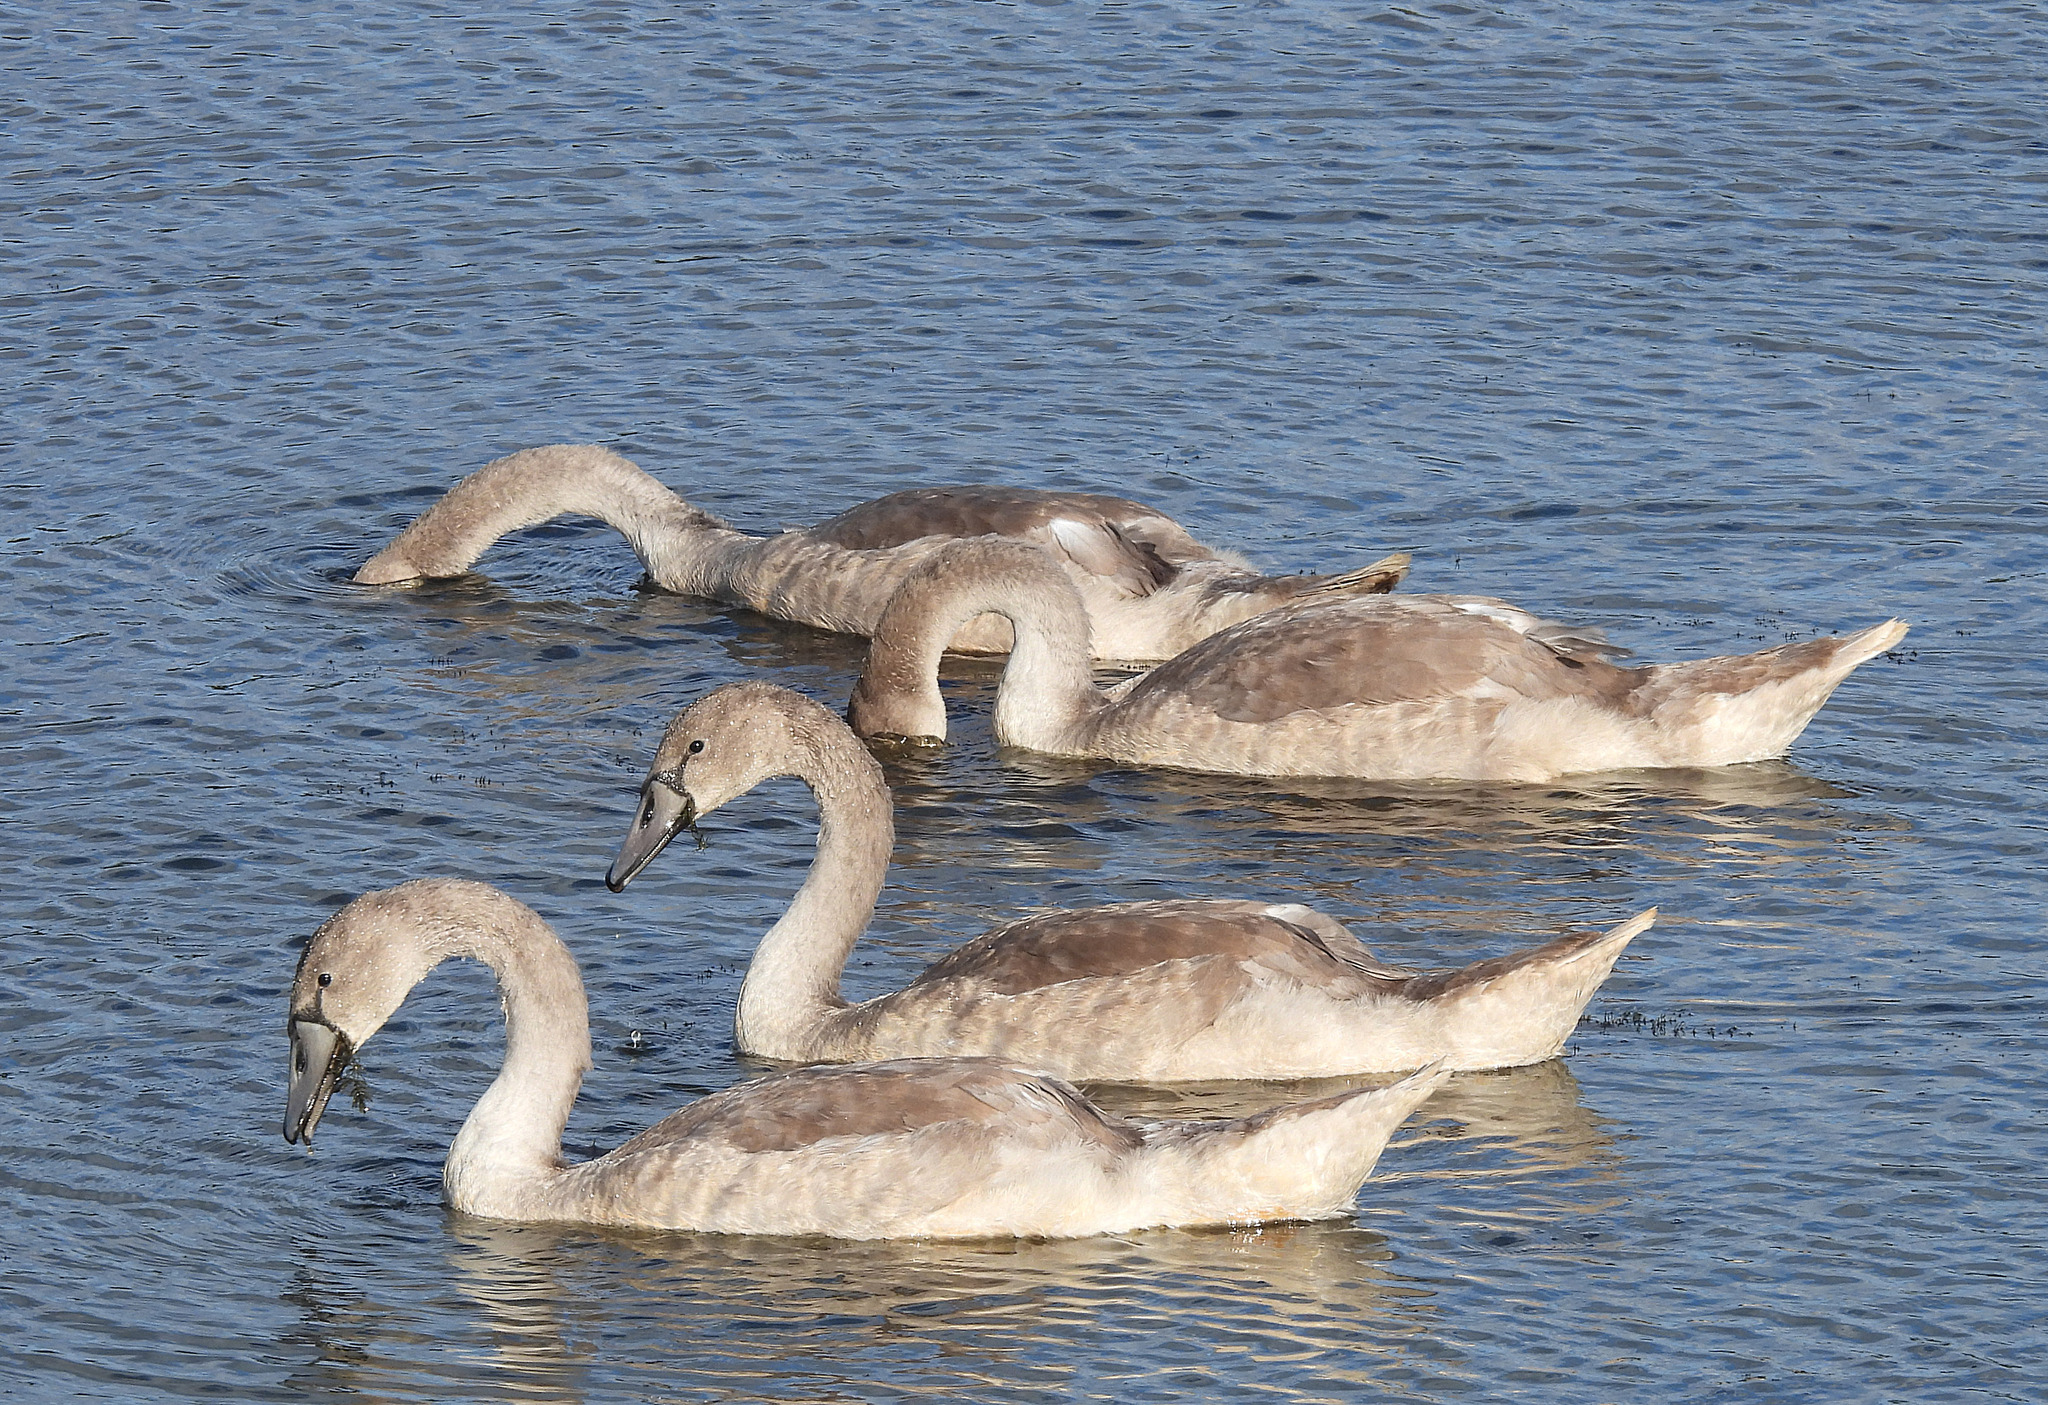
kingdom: Animalia
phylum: Chordata
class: Aves
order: Anseriformes
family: Anatidae
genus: Cygnus
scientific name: Cygnus olor
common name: Mute swan
